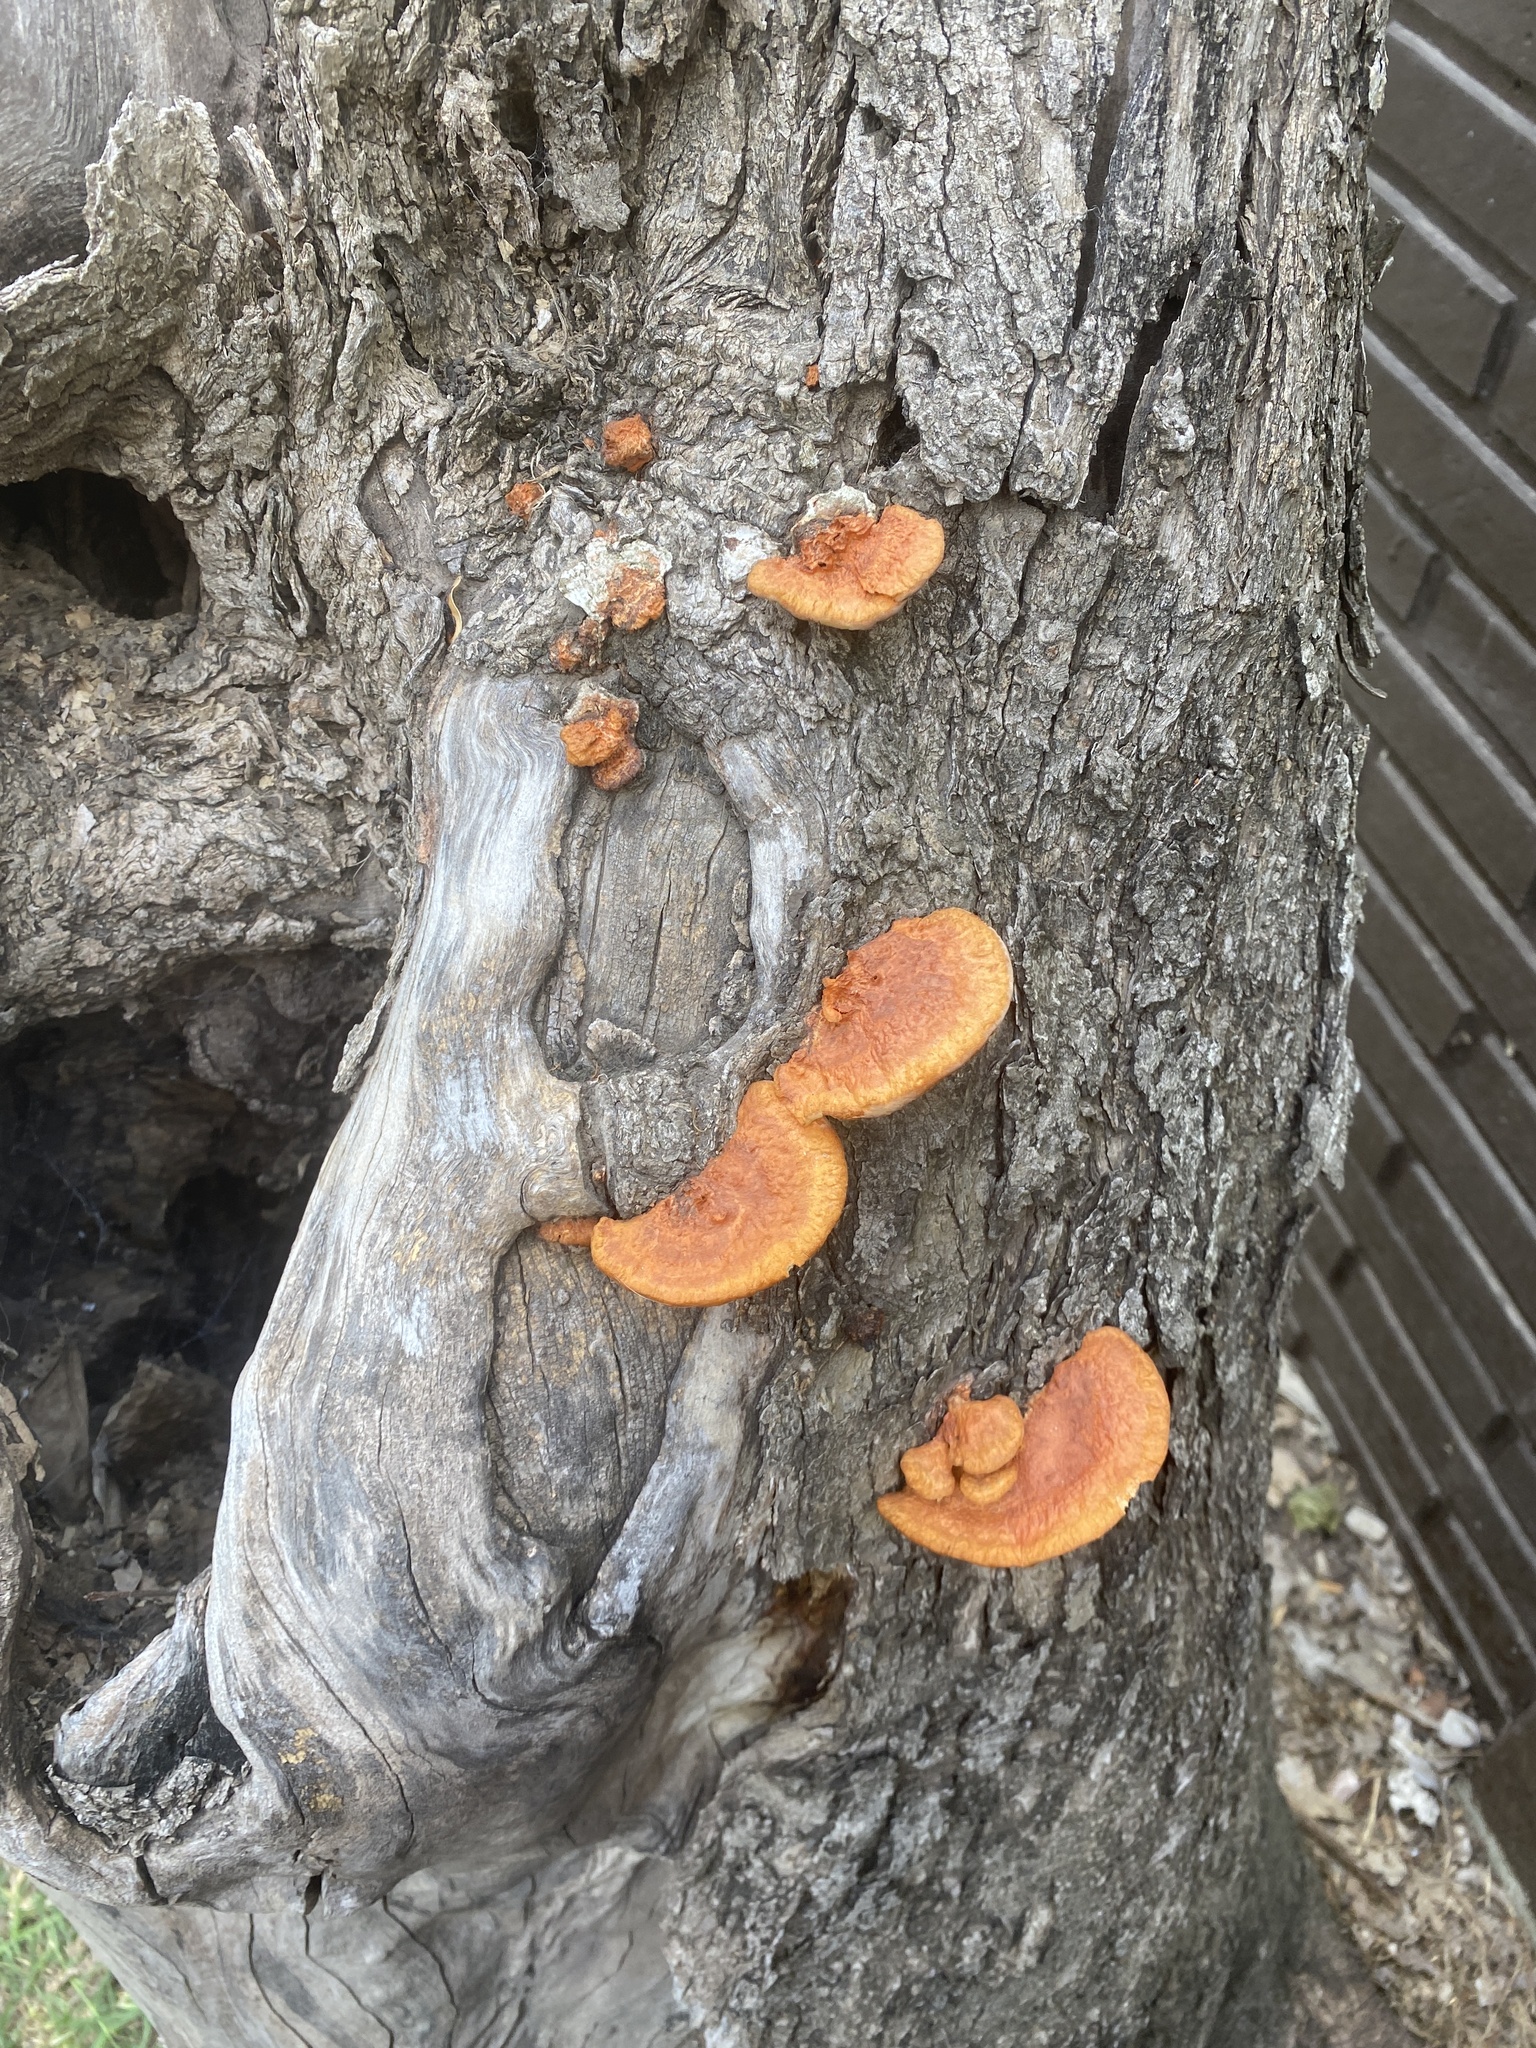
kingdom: Fungi
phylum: Basidiomycota
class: Agaricomycetes
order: Polyporales
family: Polyporaceae
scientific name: Polyporaceae
